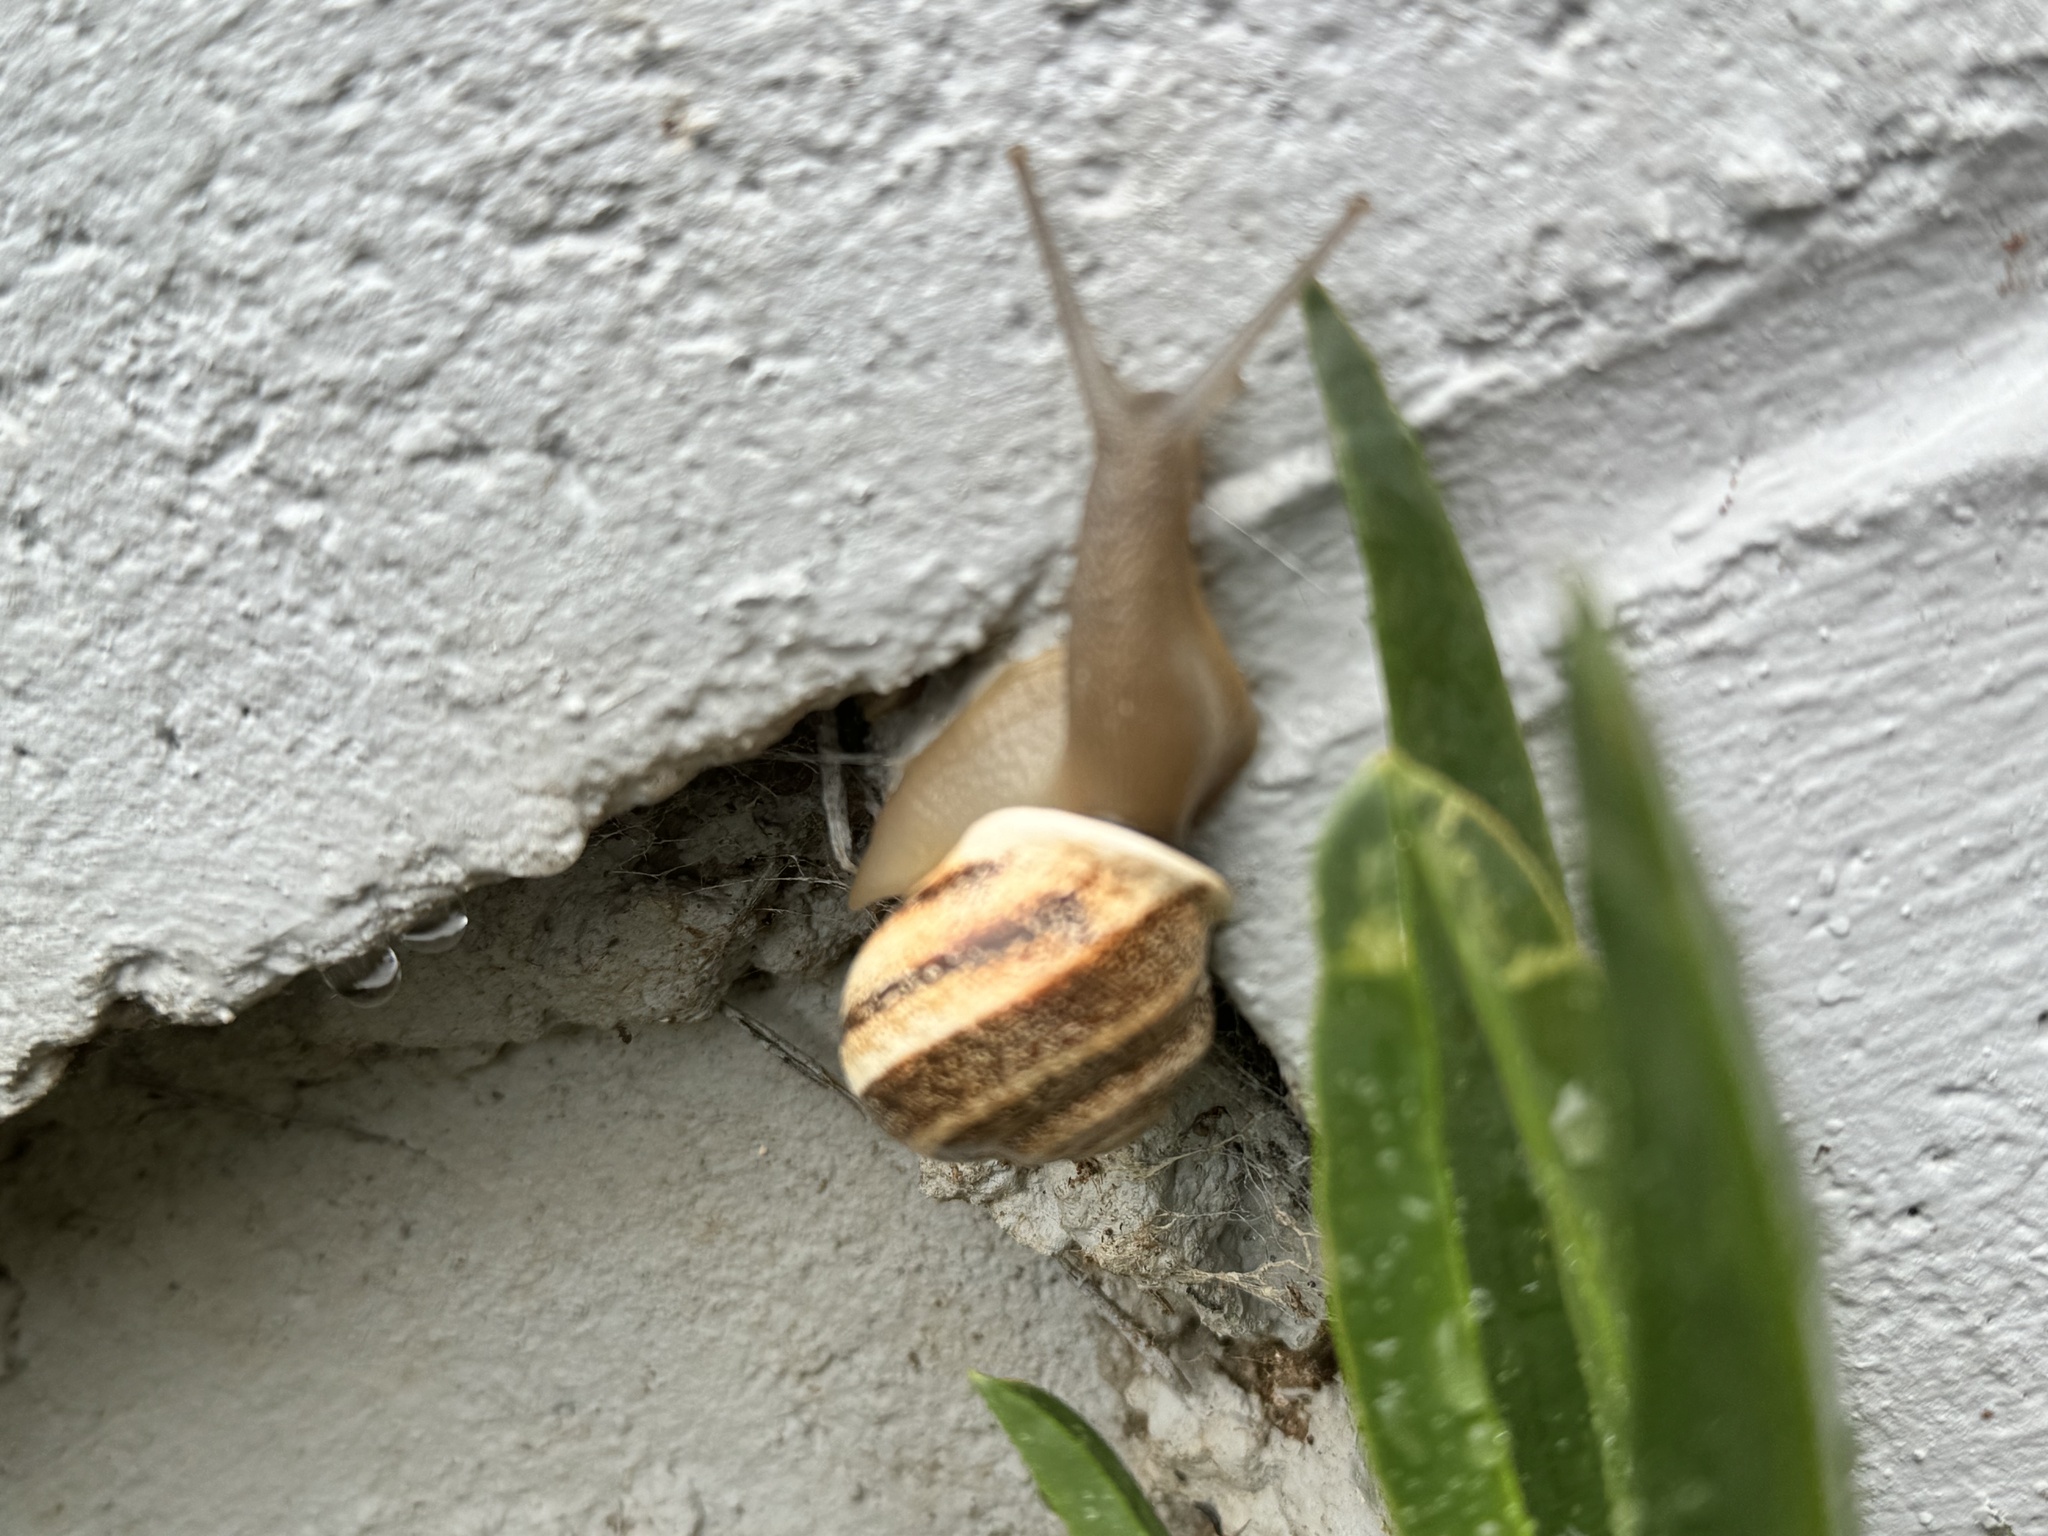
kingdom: Animalia
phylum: Mollusca
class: Gastropoda
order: Stylommatophora
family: Helicidae
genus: Otala
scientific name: Otala lactea
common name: Milk snail
